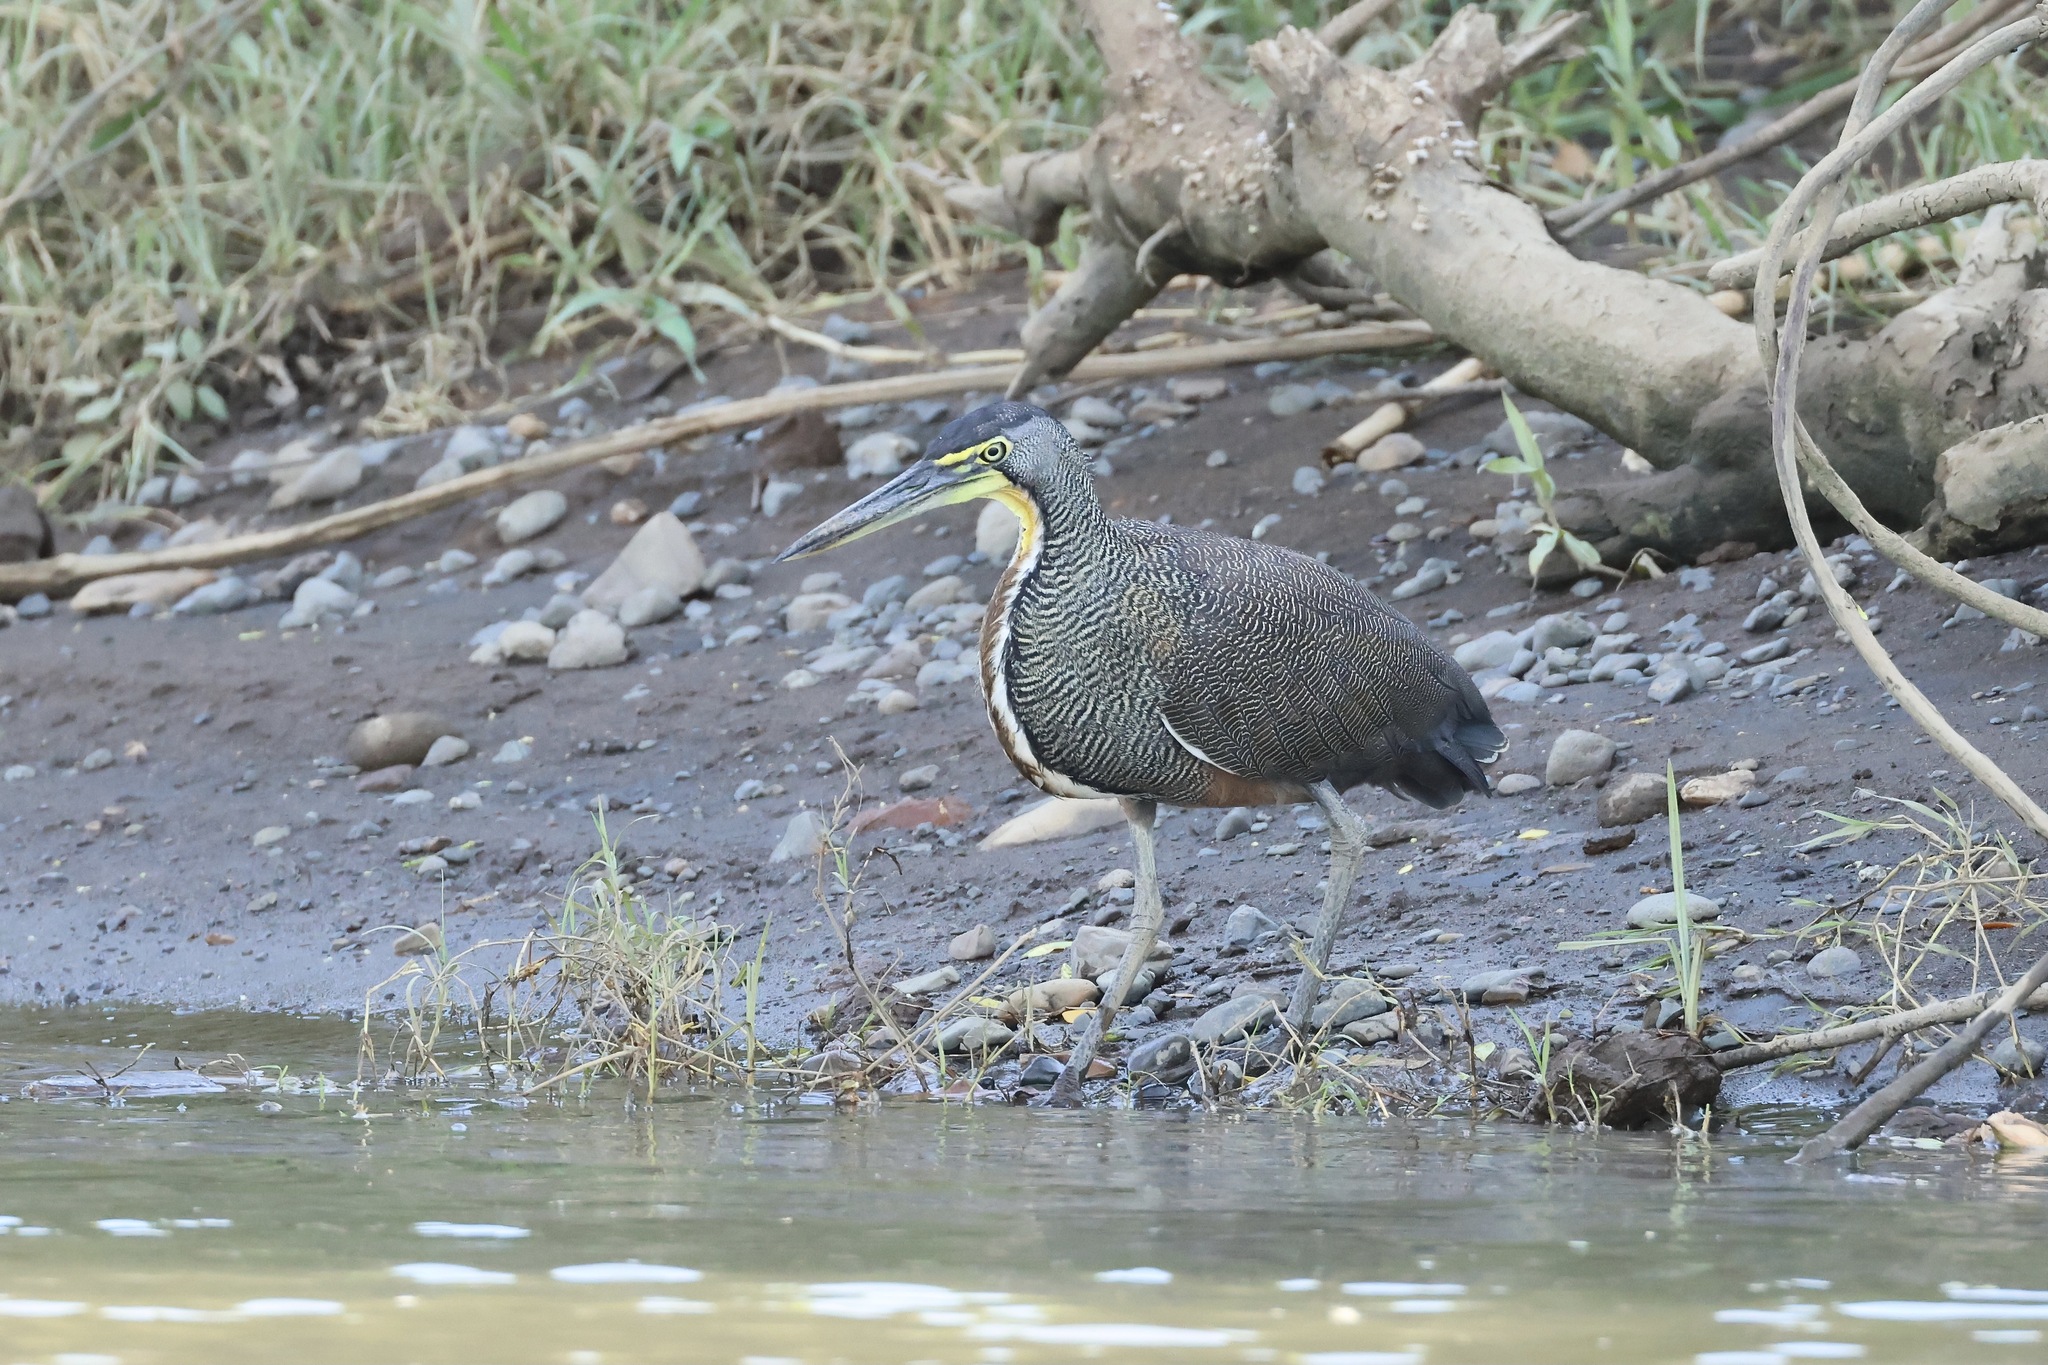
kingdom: Animalia
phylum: Chordata
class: Aves
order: Pelecaniformes
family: Ardeidae
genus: Tigrisoma
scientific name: Tigrisoma mexicanum
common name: Bare-throated tiger-heron
